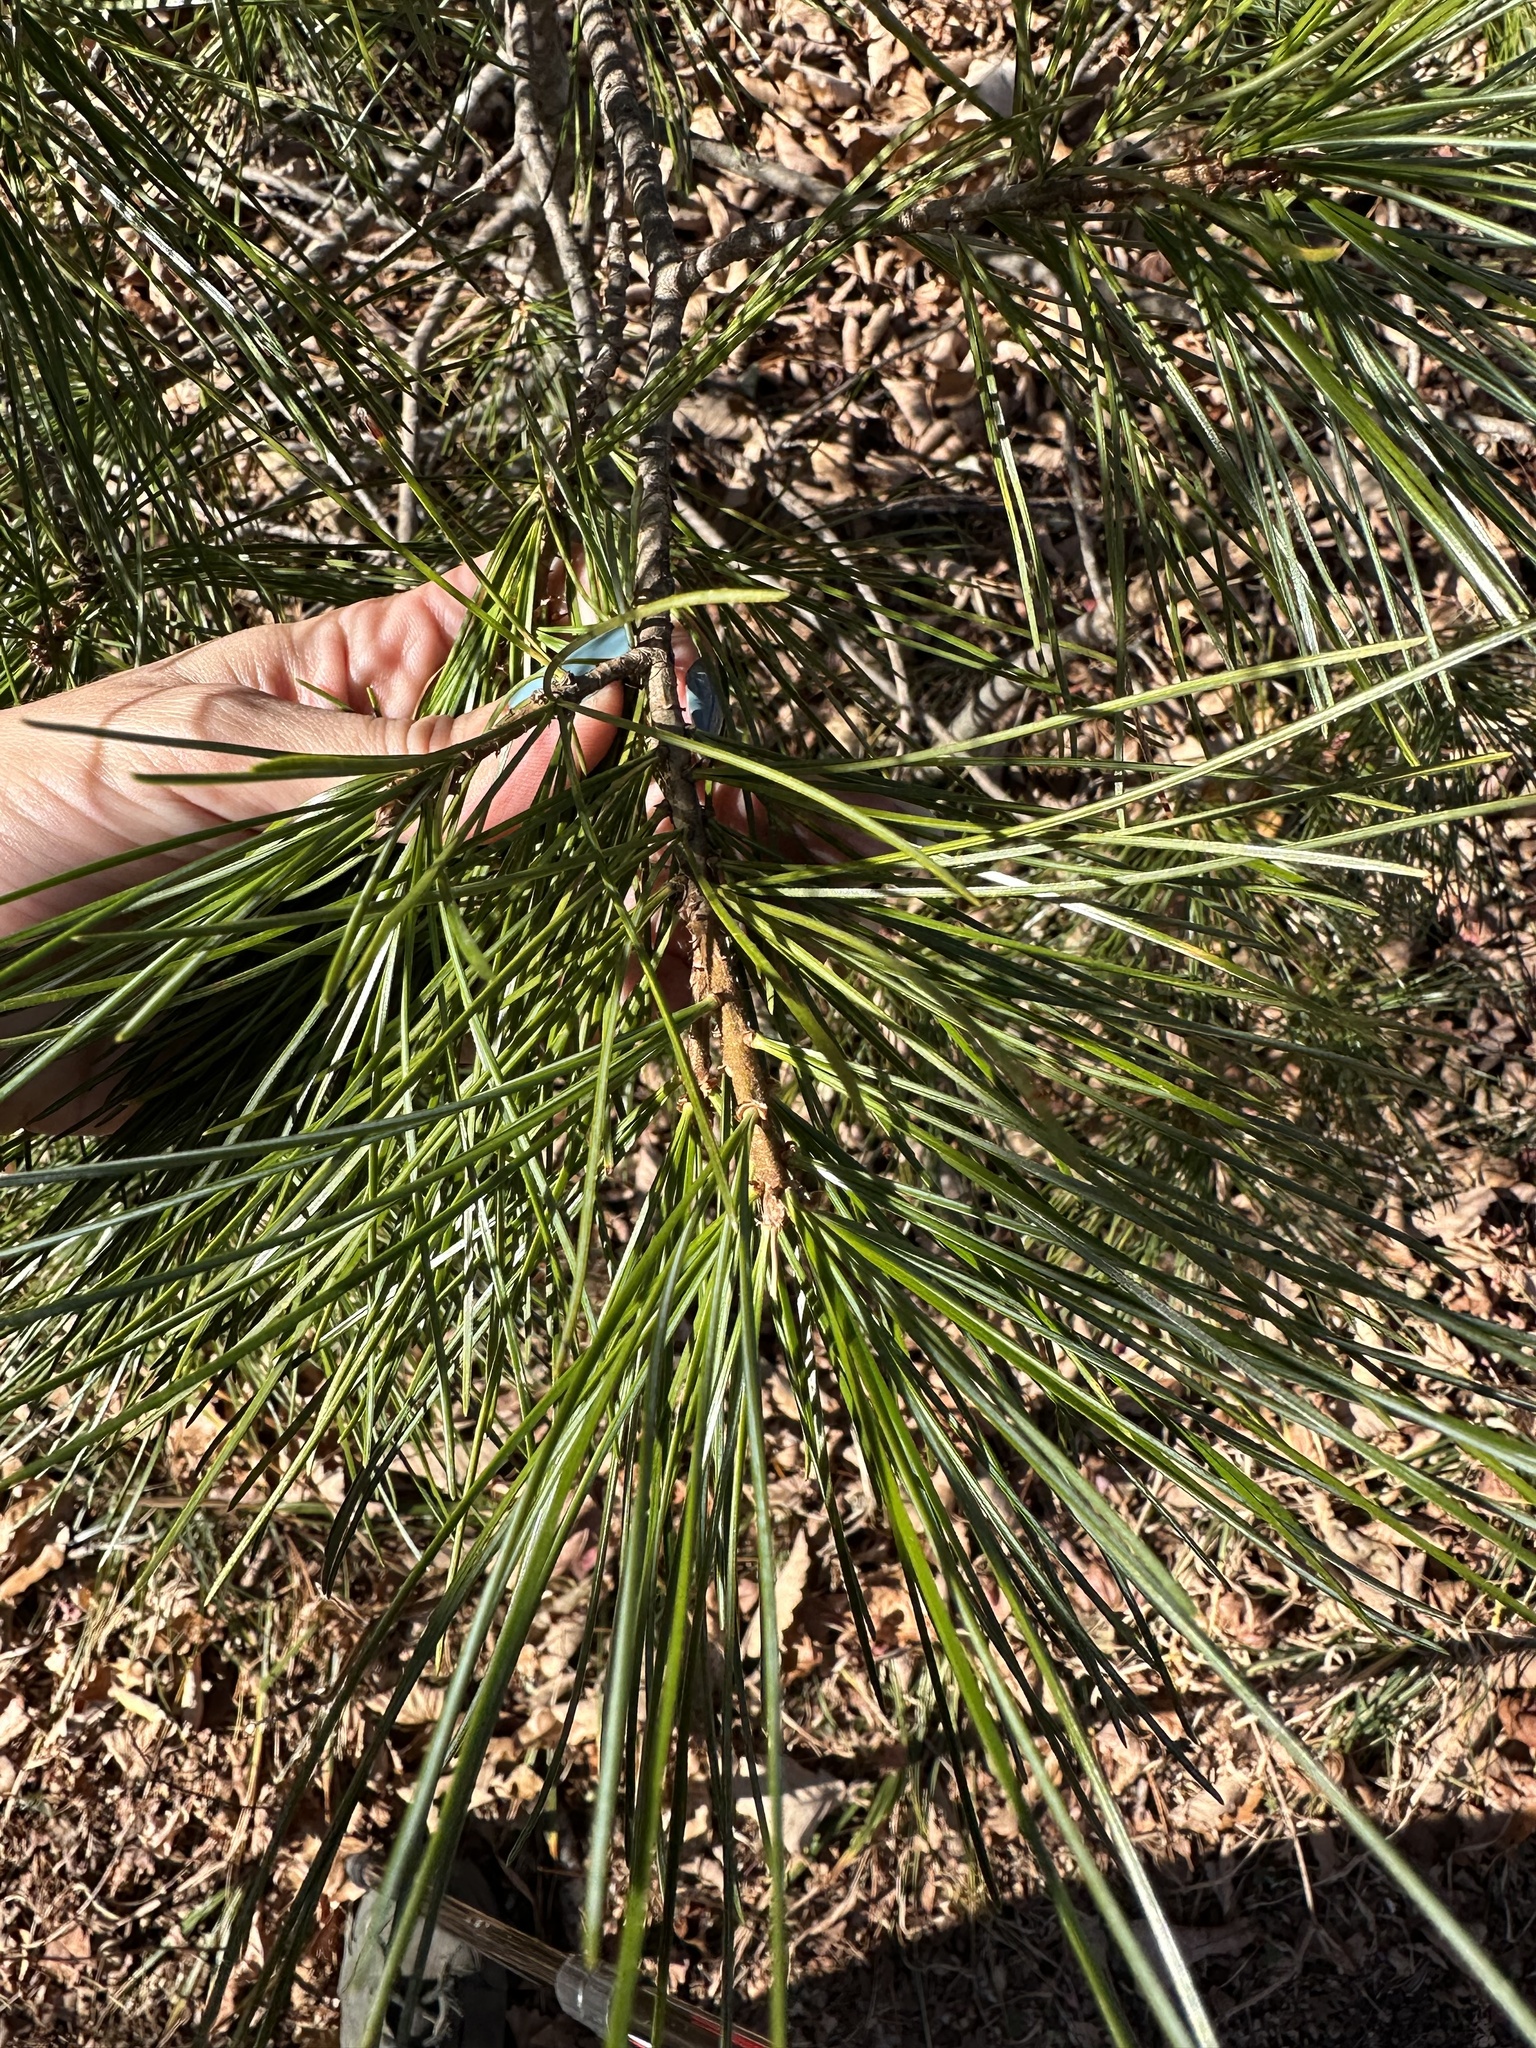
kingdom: Plantae
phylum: Tracheophyta
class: Pinopsida
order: Pinales
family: Pinaceae
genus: Pinus
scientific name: Pinus koraiensis
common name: Korean pine
